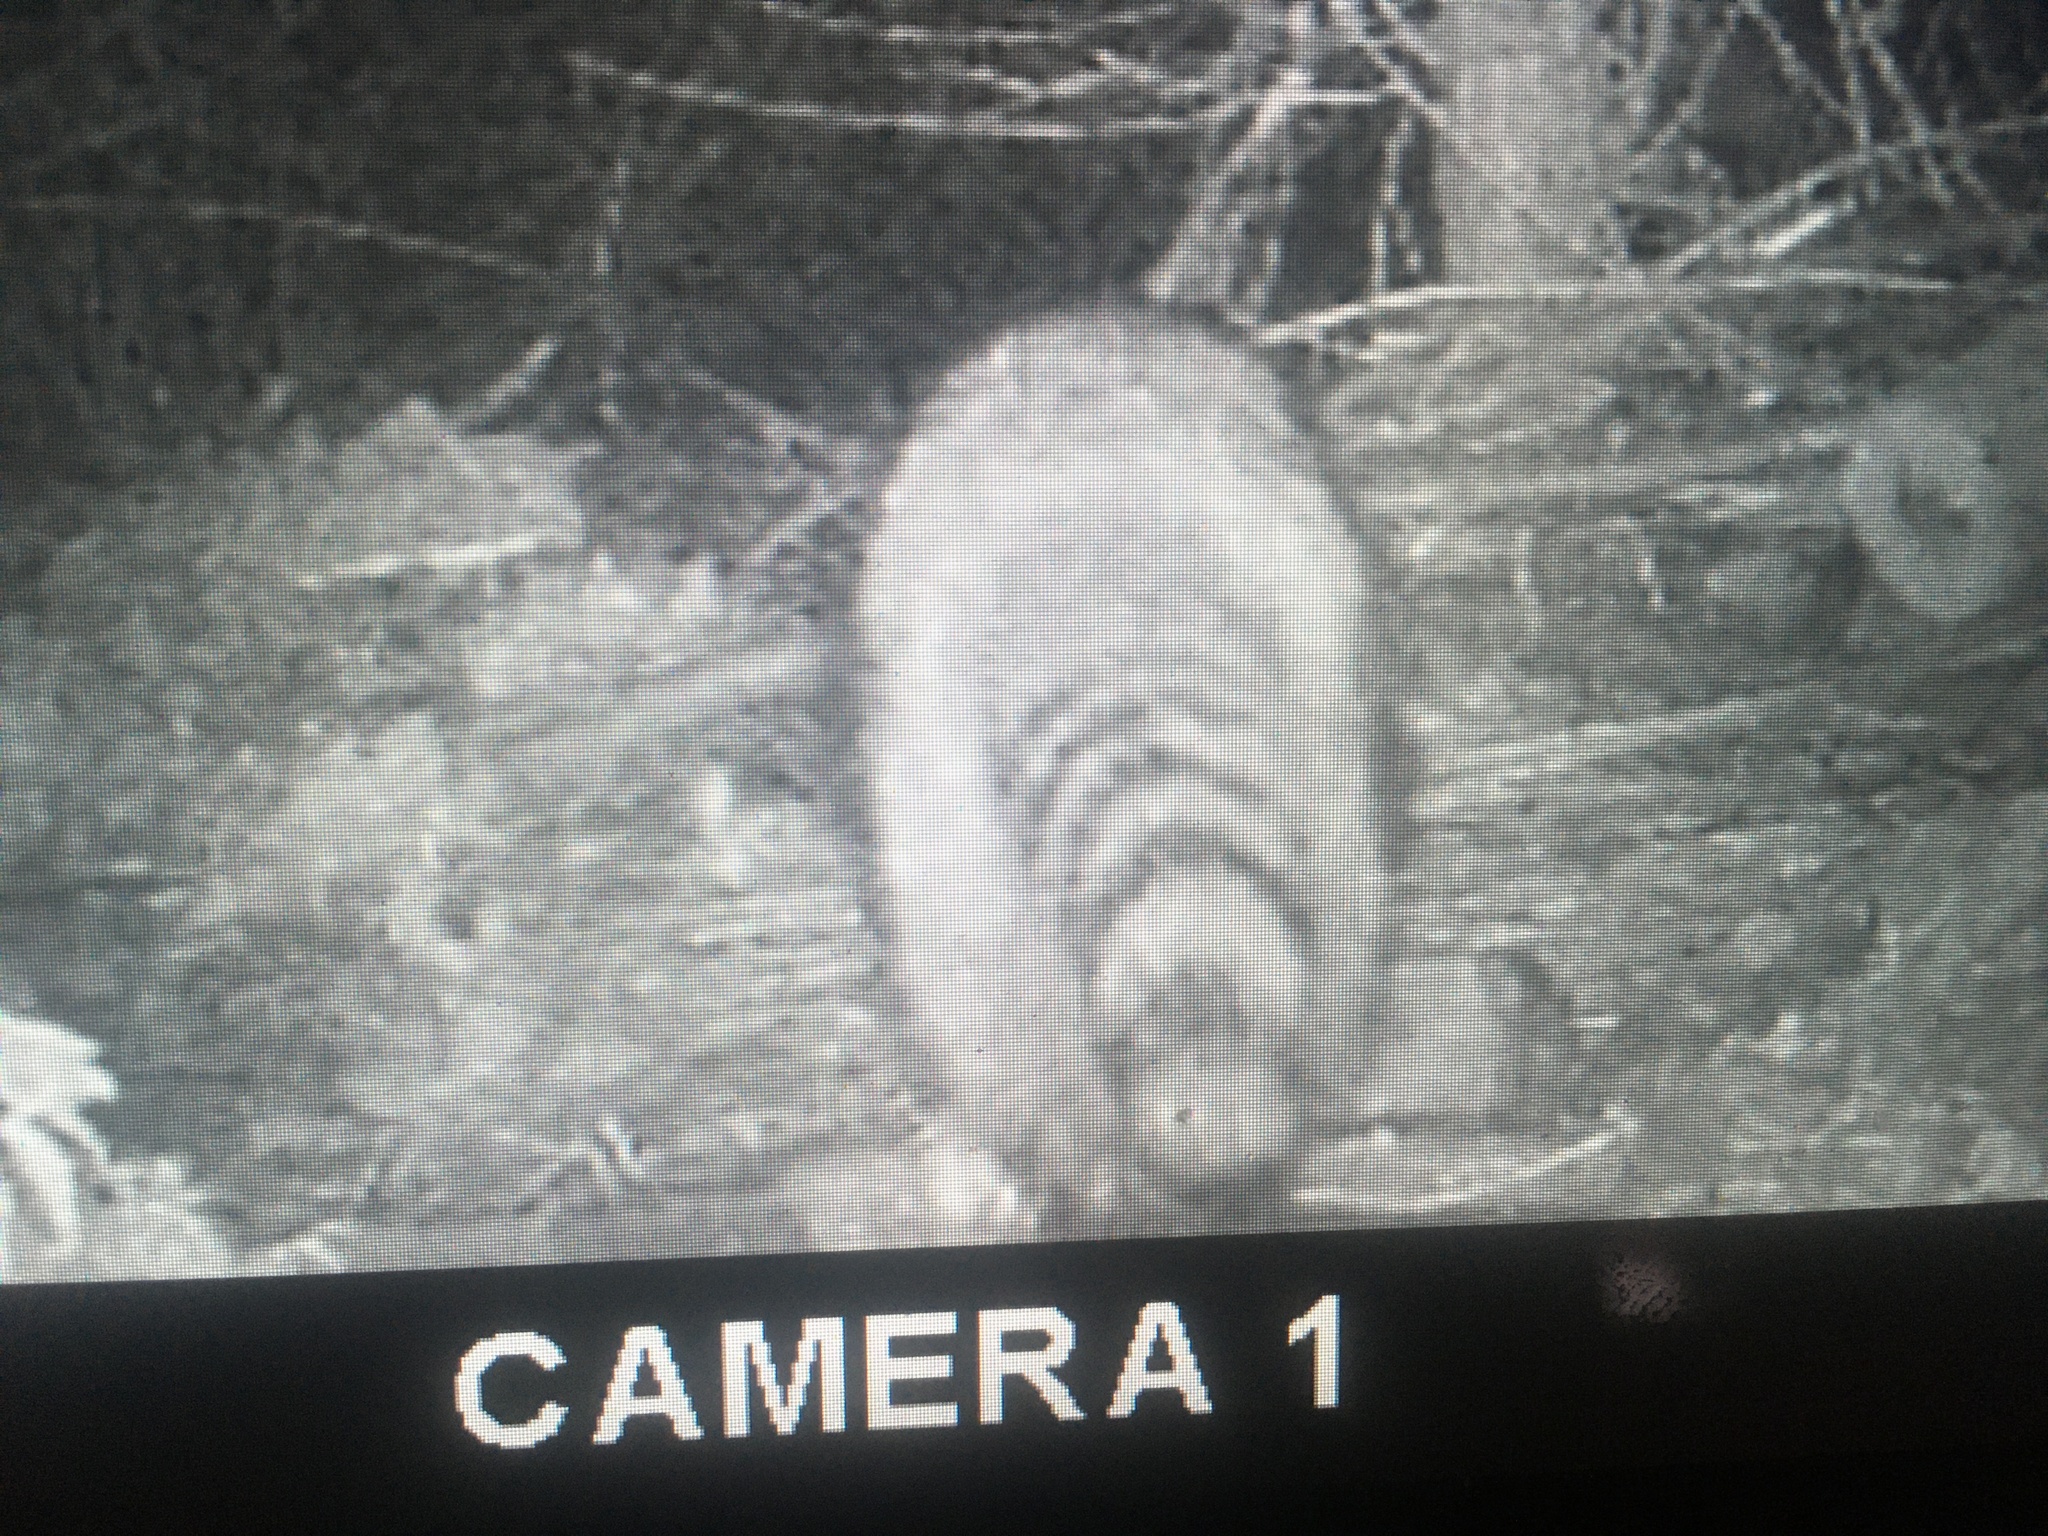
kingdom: Animalia
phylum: Chordata
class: Mammalia
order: Carnivora
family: Procyonidae
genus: Procyon
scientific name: Procyon lotor
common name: Raccoon
